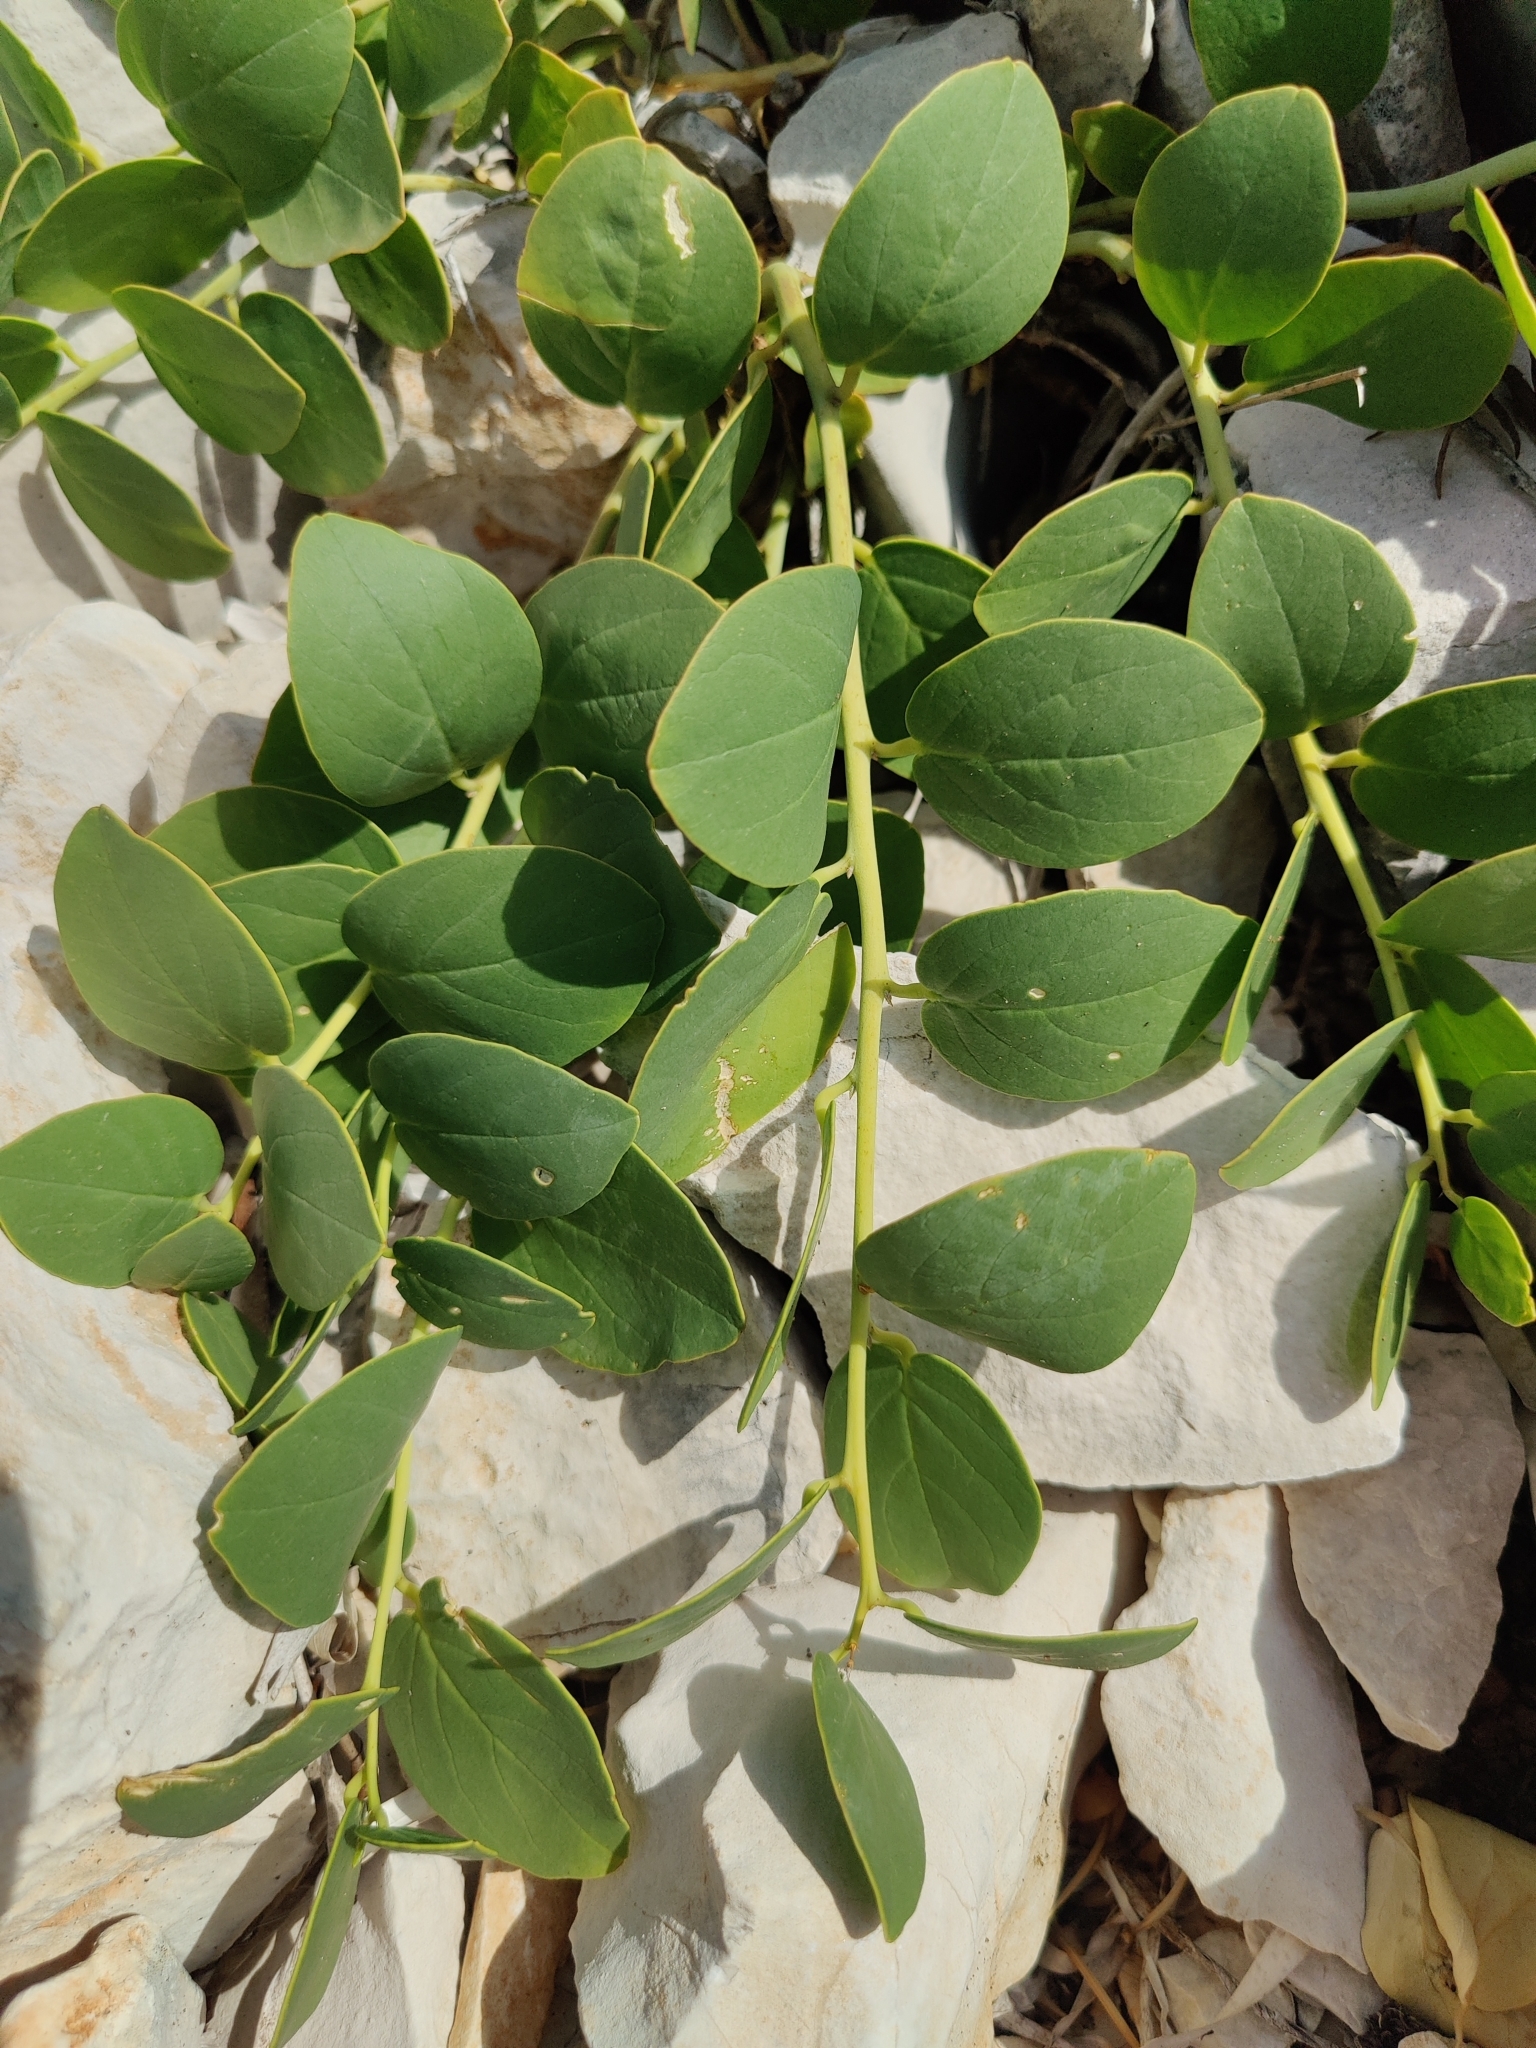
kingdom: Plantae
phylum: Tracheophyta
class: Magnoliopsida
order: Brassicales
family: Capparaceae
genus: Capparis
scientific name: Capparis orientalis
